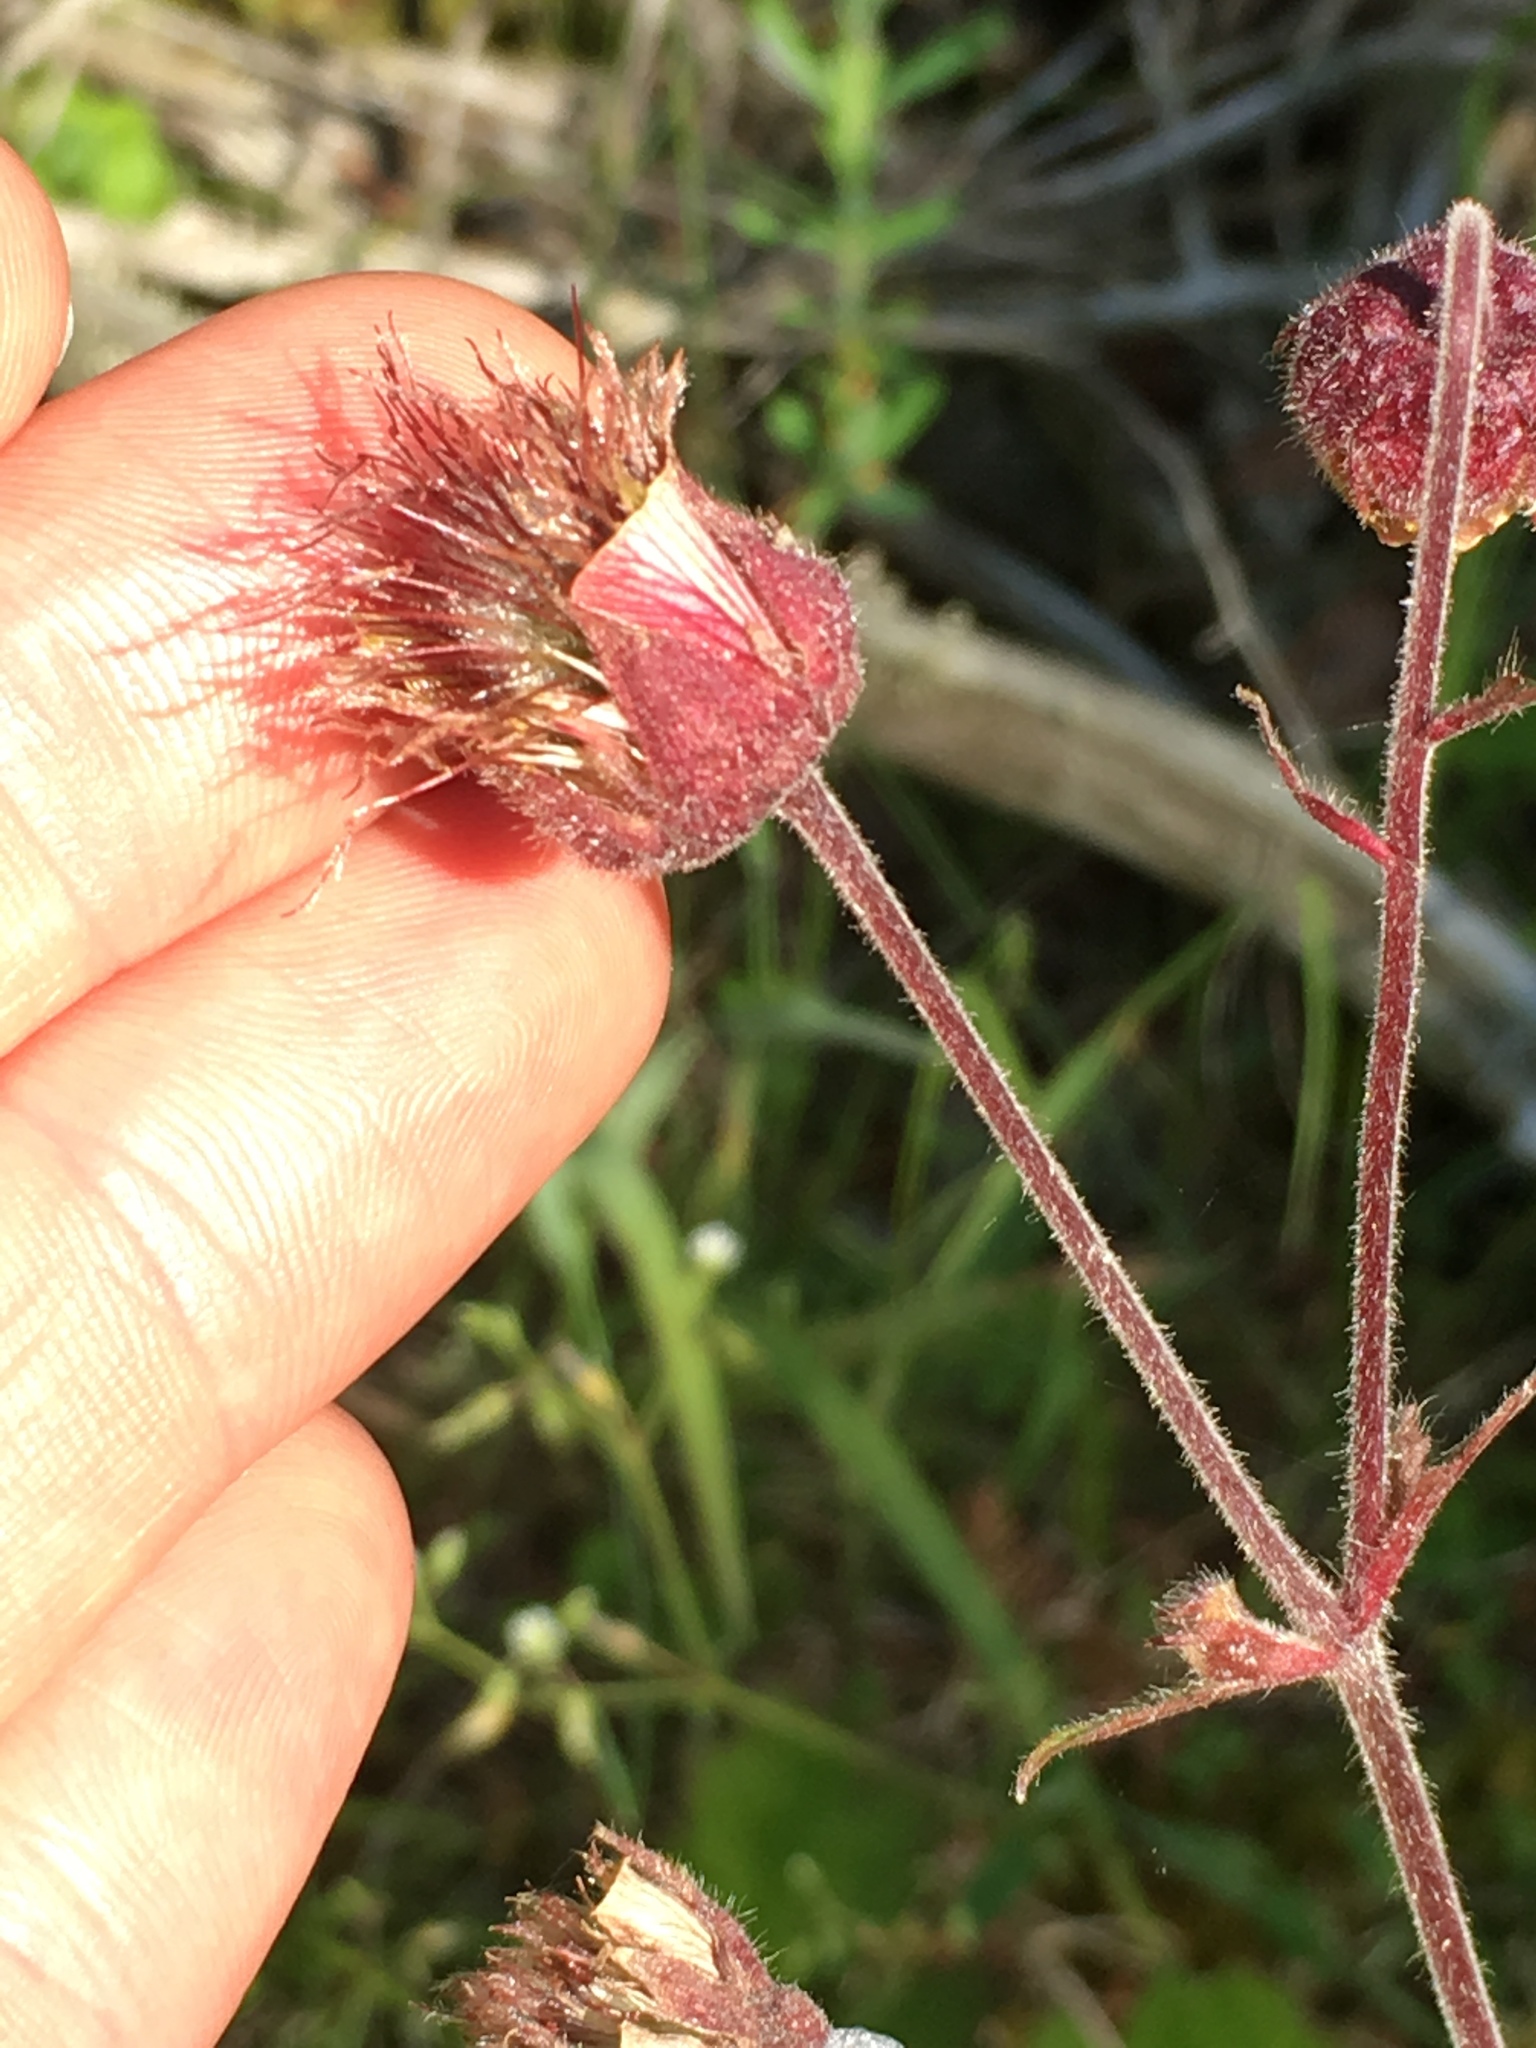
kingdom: Plantae
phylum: Tracheophyta
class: Magnoliopsida
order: Rosales
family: Rosaceae
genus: Geum
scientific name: Geum rivale
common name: Water avens
